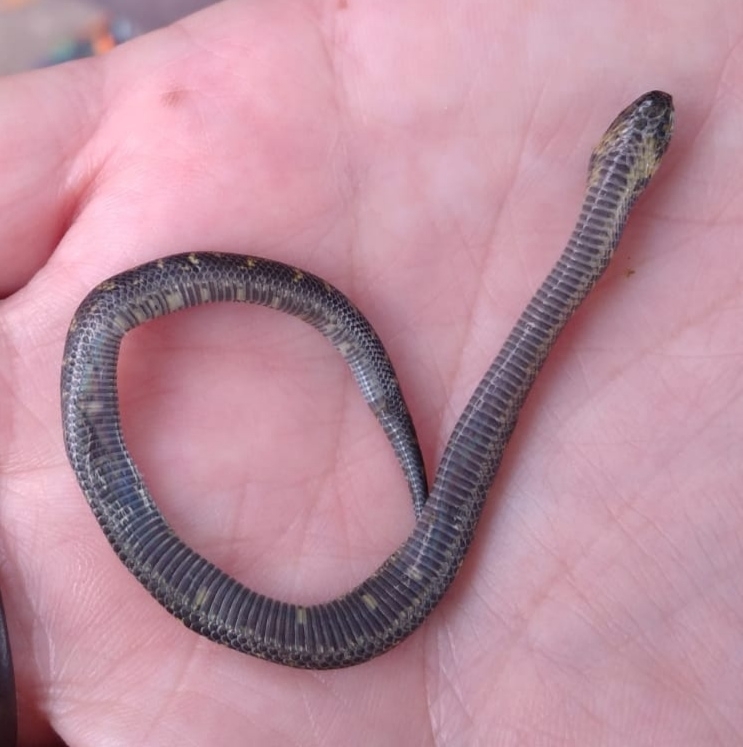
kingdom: Animalia
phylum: Chordata
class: Squamata
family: Colubridae
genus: Atractus
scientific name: Atractus crassicaudatus
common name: Thickhead ground snake
